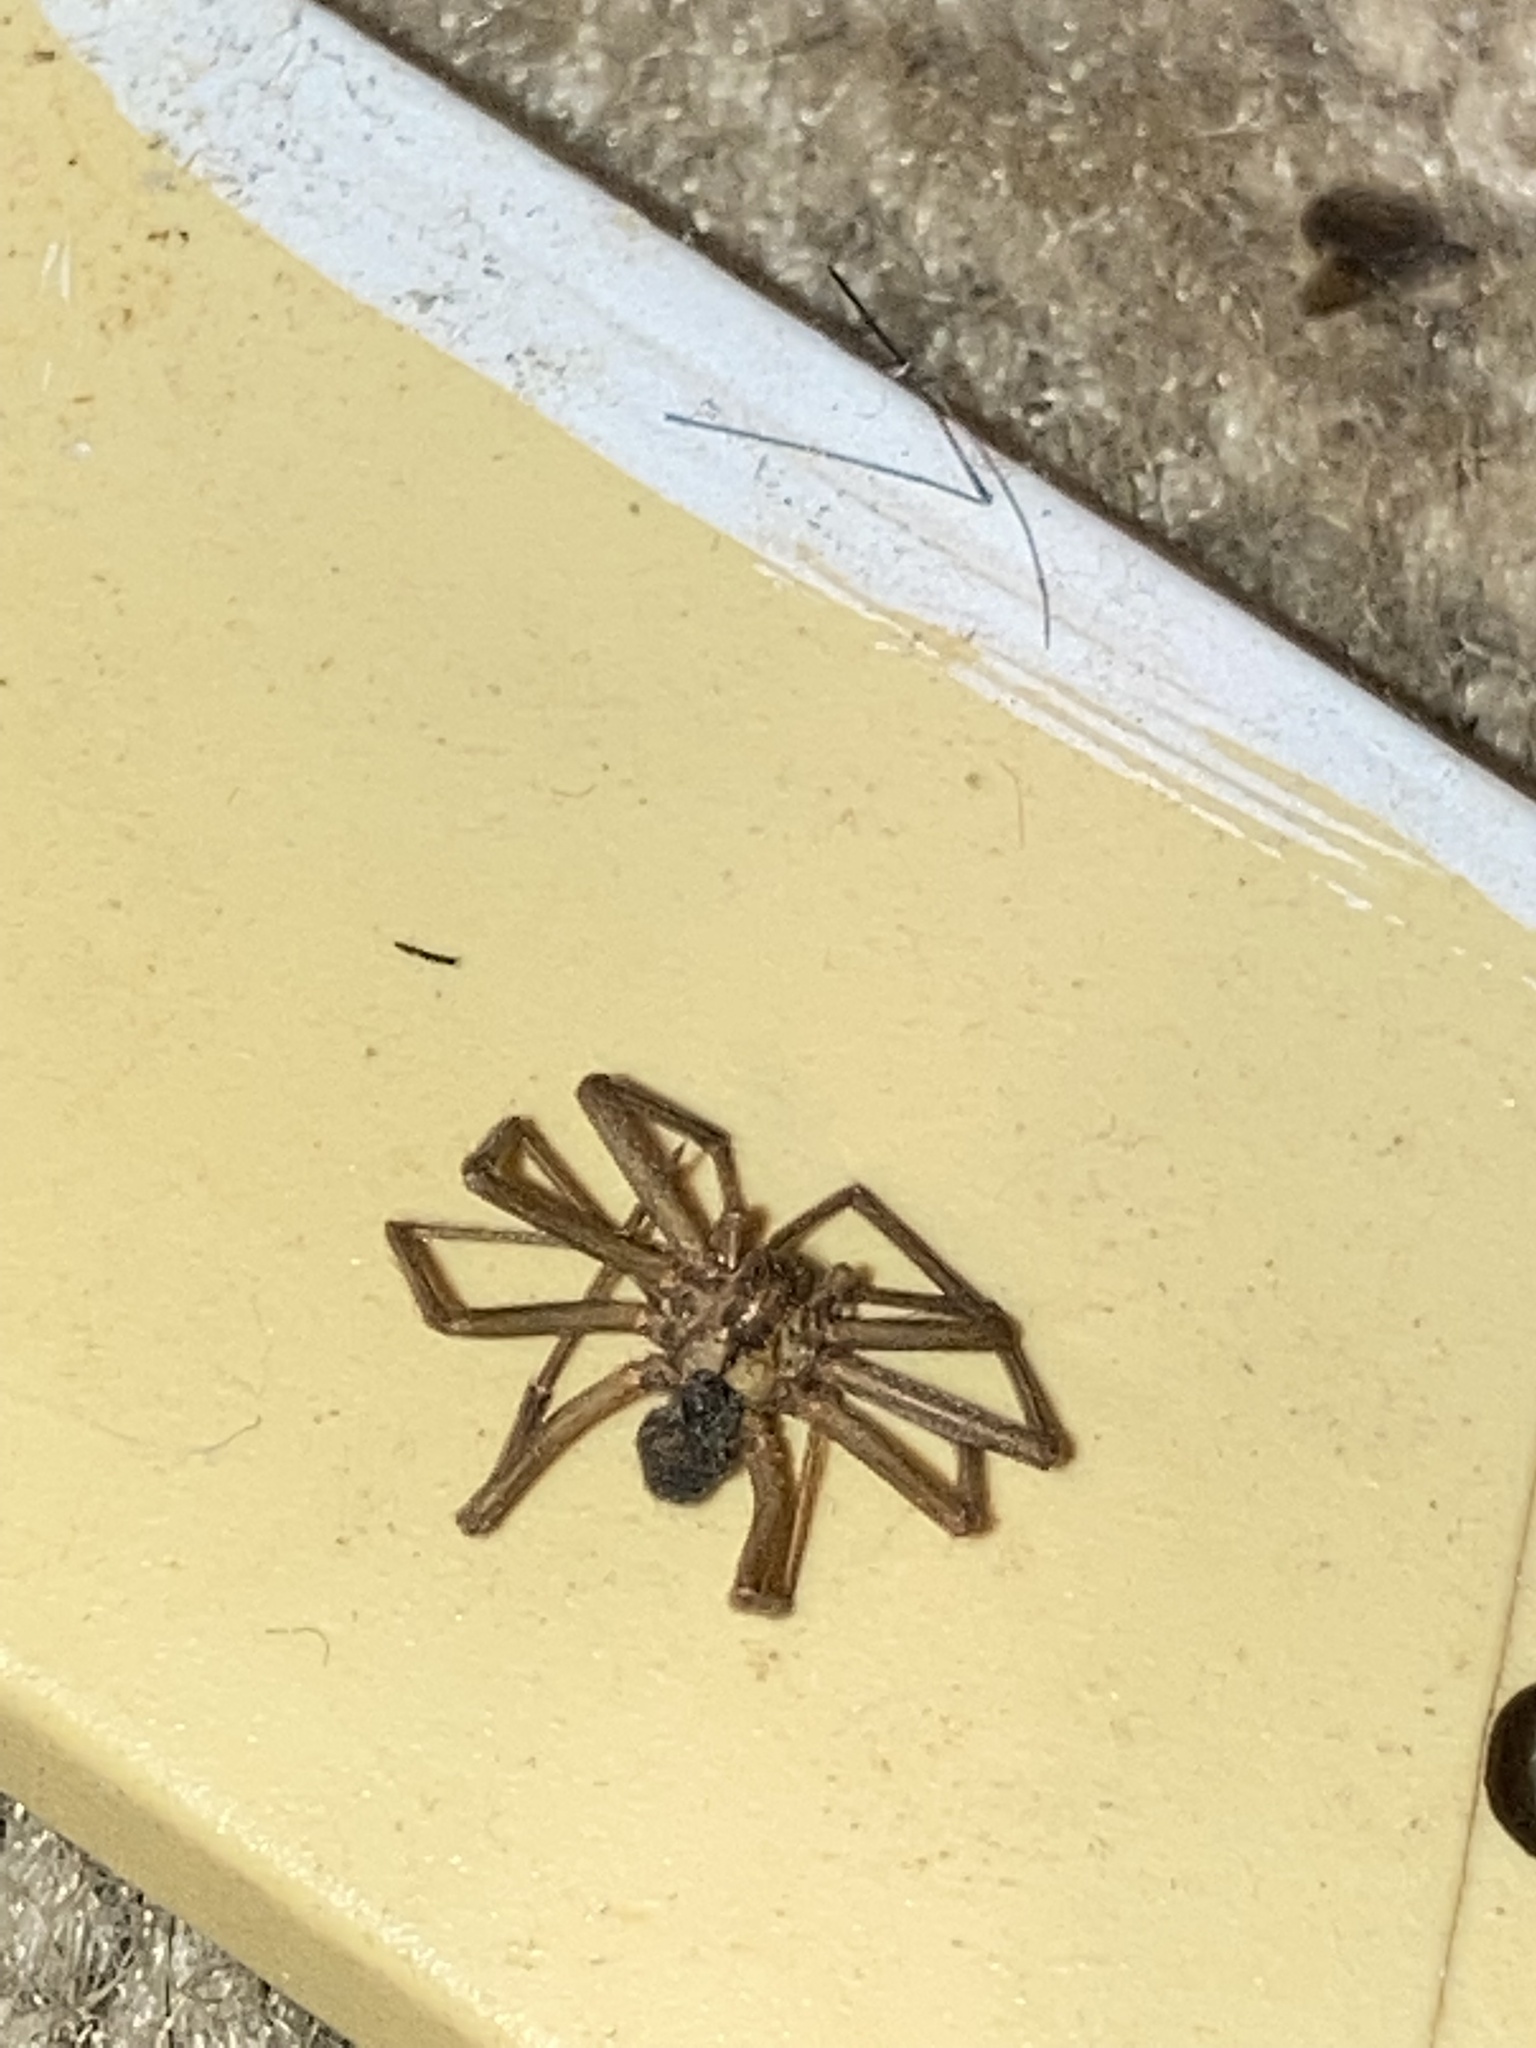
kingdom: Animalia
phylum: Arthropoda
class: Arachnida
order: Araneae
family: Sicariidae
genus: Loxosceles
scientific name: Loxosceles reclusa
